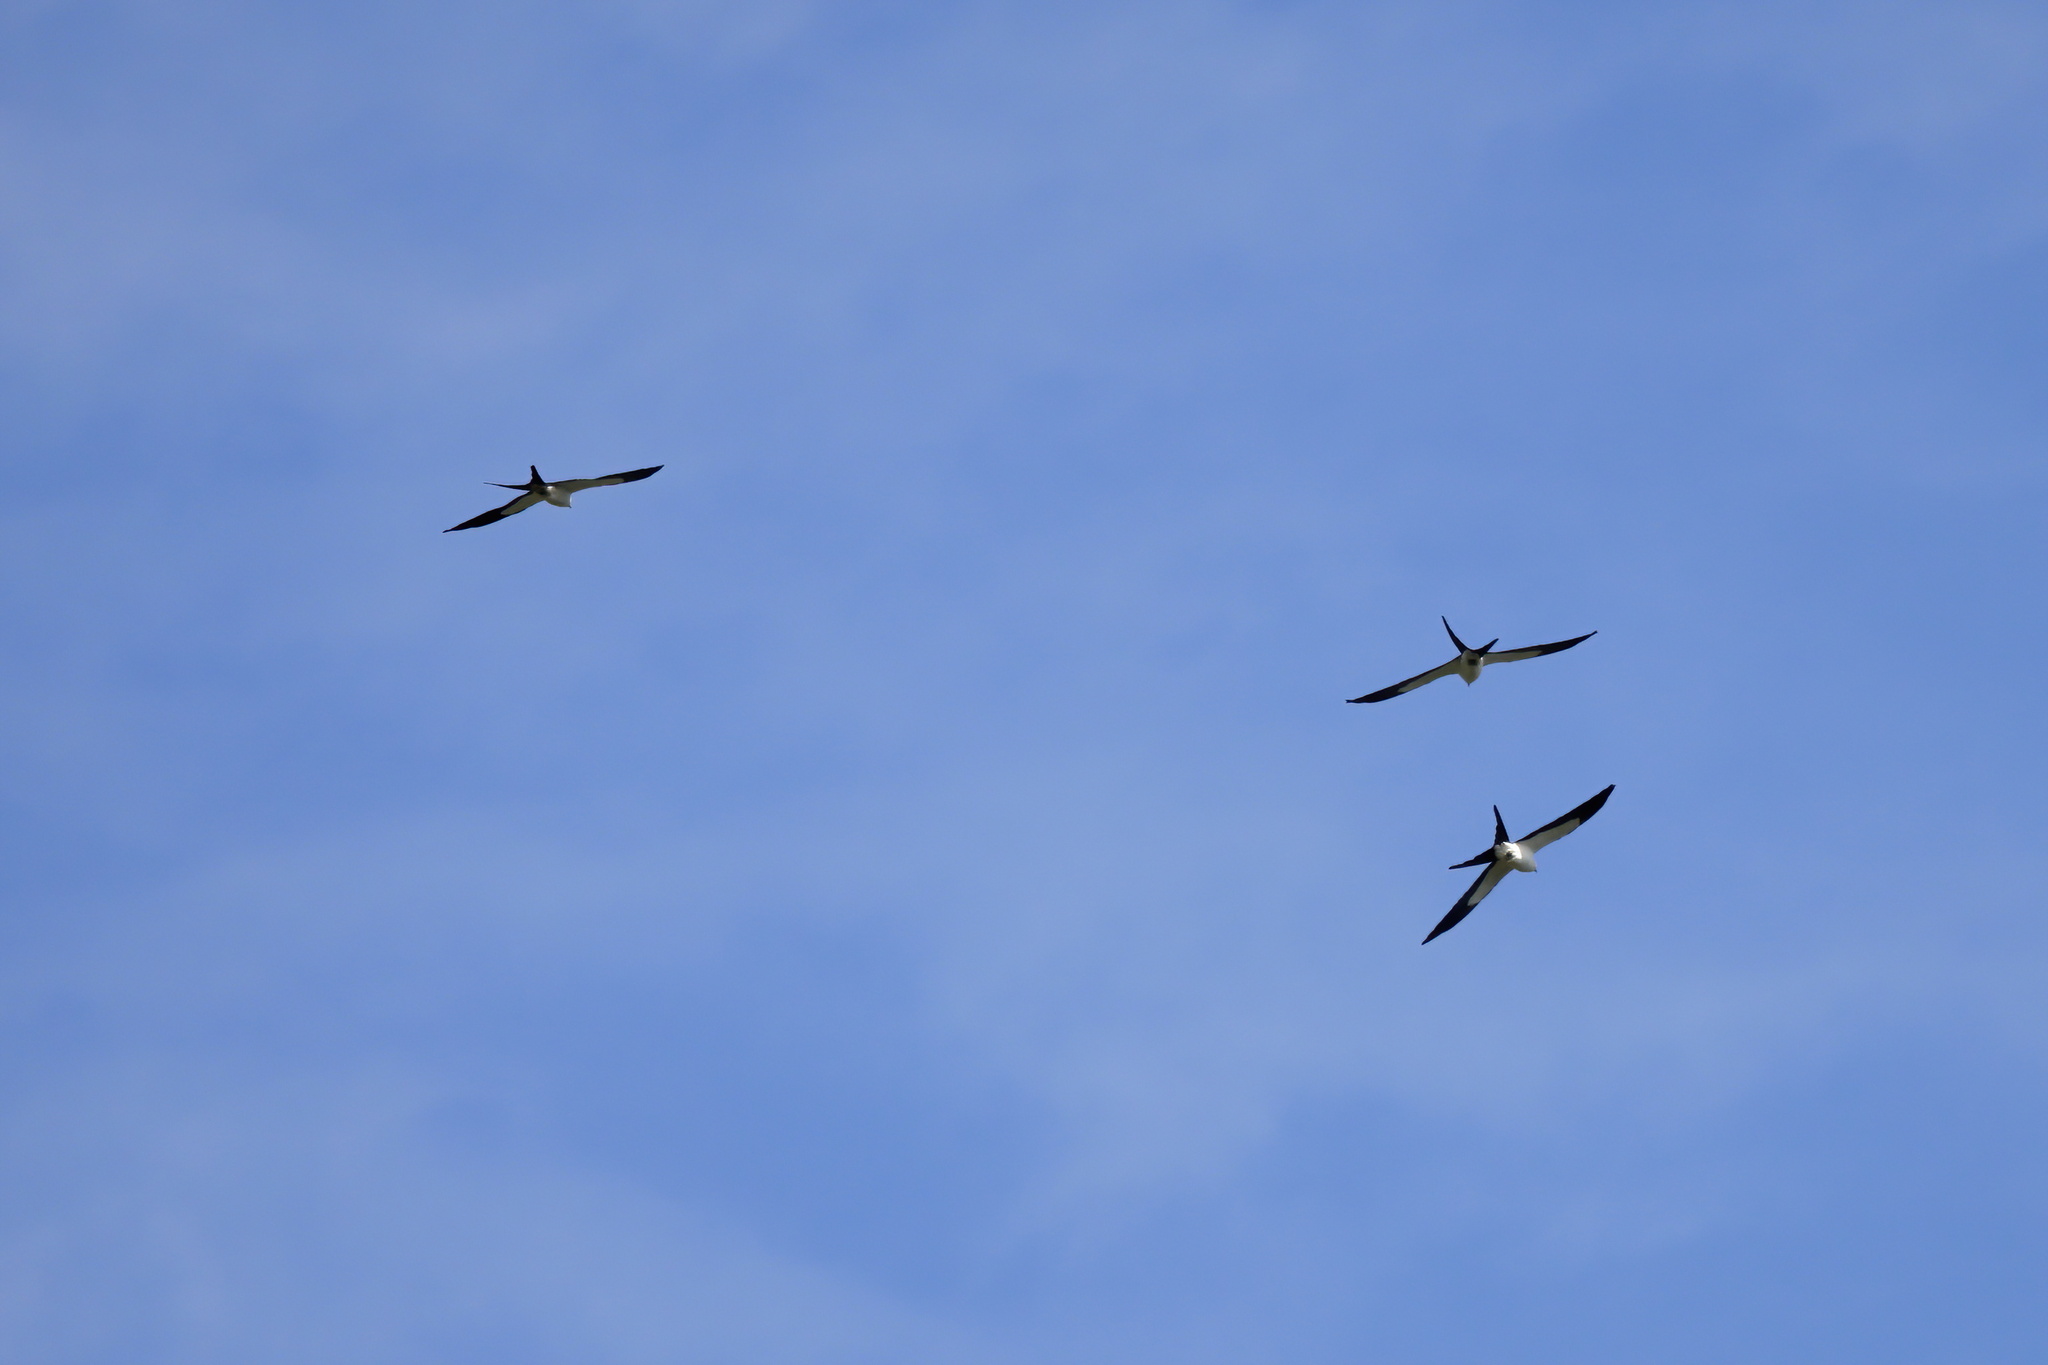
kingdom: Animalia
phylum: Chordata
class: Aves
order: Accipitriformes
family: Accipitridae
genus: Elanoides
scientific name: Elanoides forficatus
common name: Swallow-tailed kite
